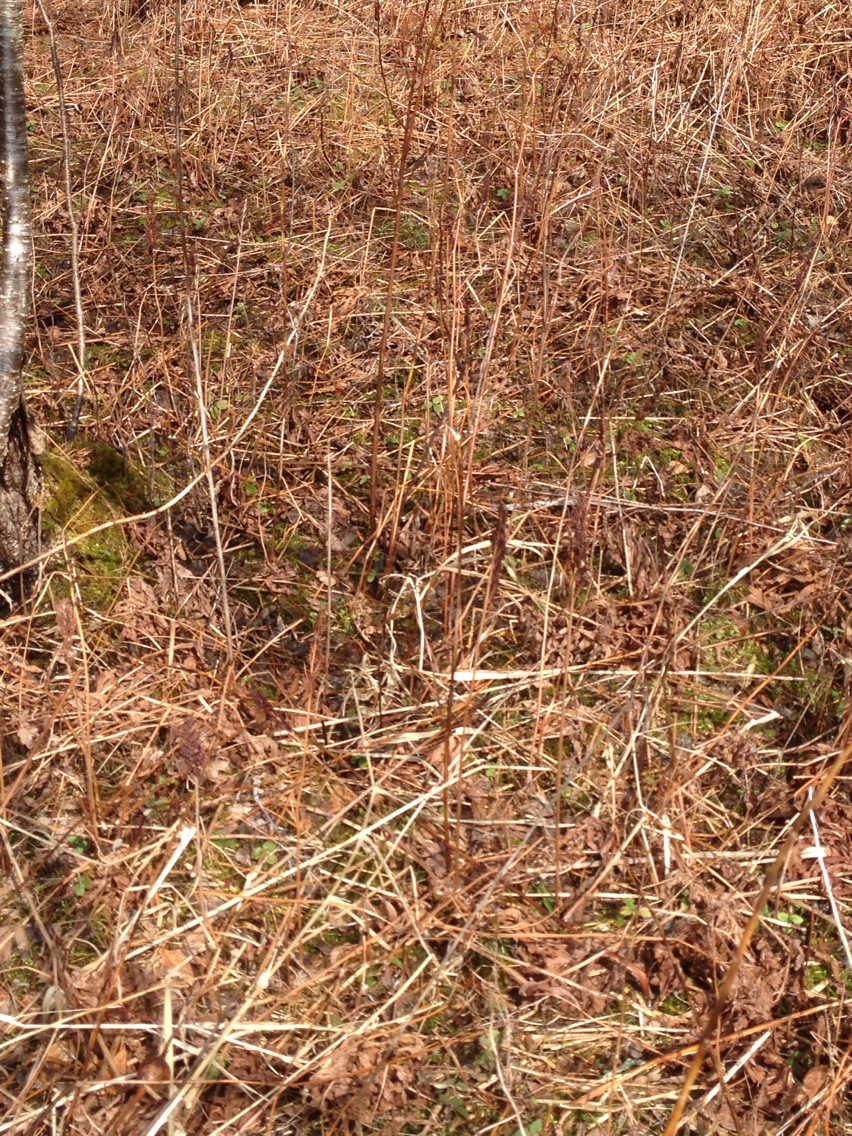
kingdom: Plantae
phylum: Tracheophyta
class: Polypodiopsida
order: Polypodiales
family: Onocleaceae
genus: Onoclea
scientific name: Onoclea sensibilis
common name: Sensitive fern
